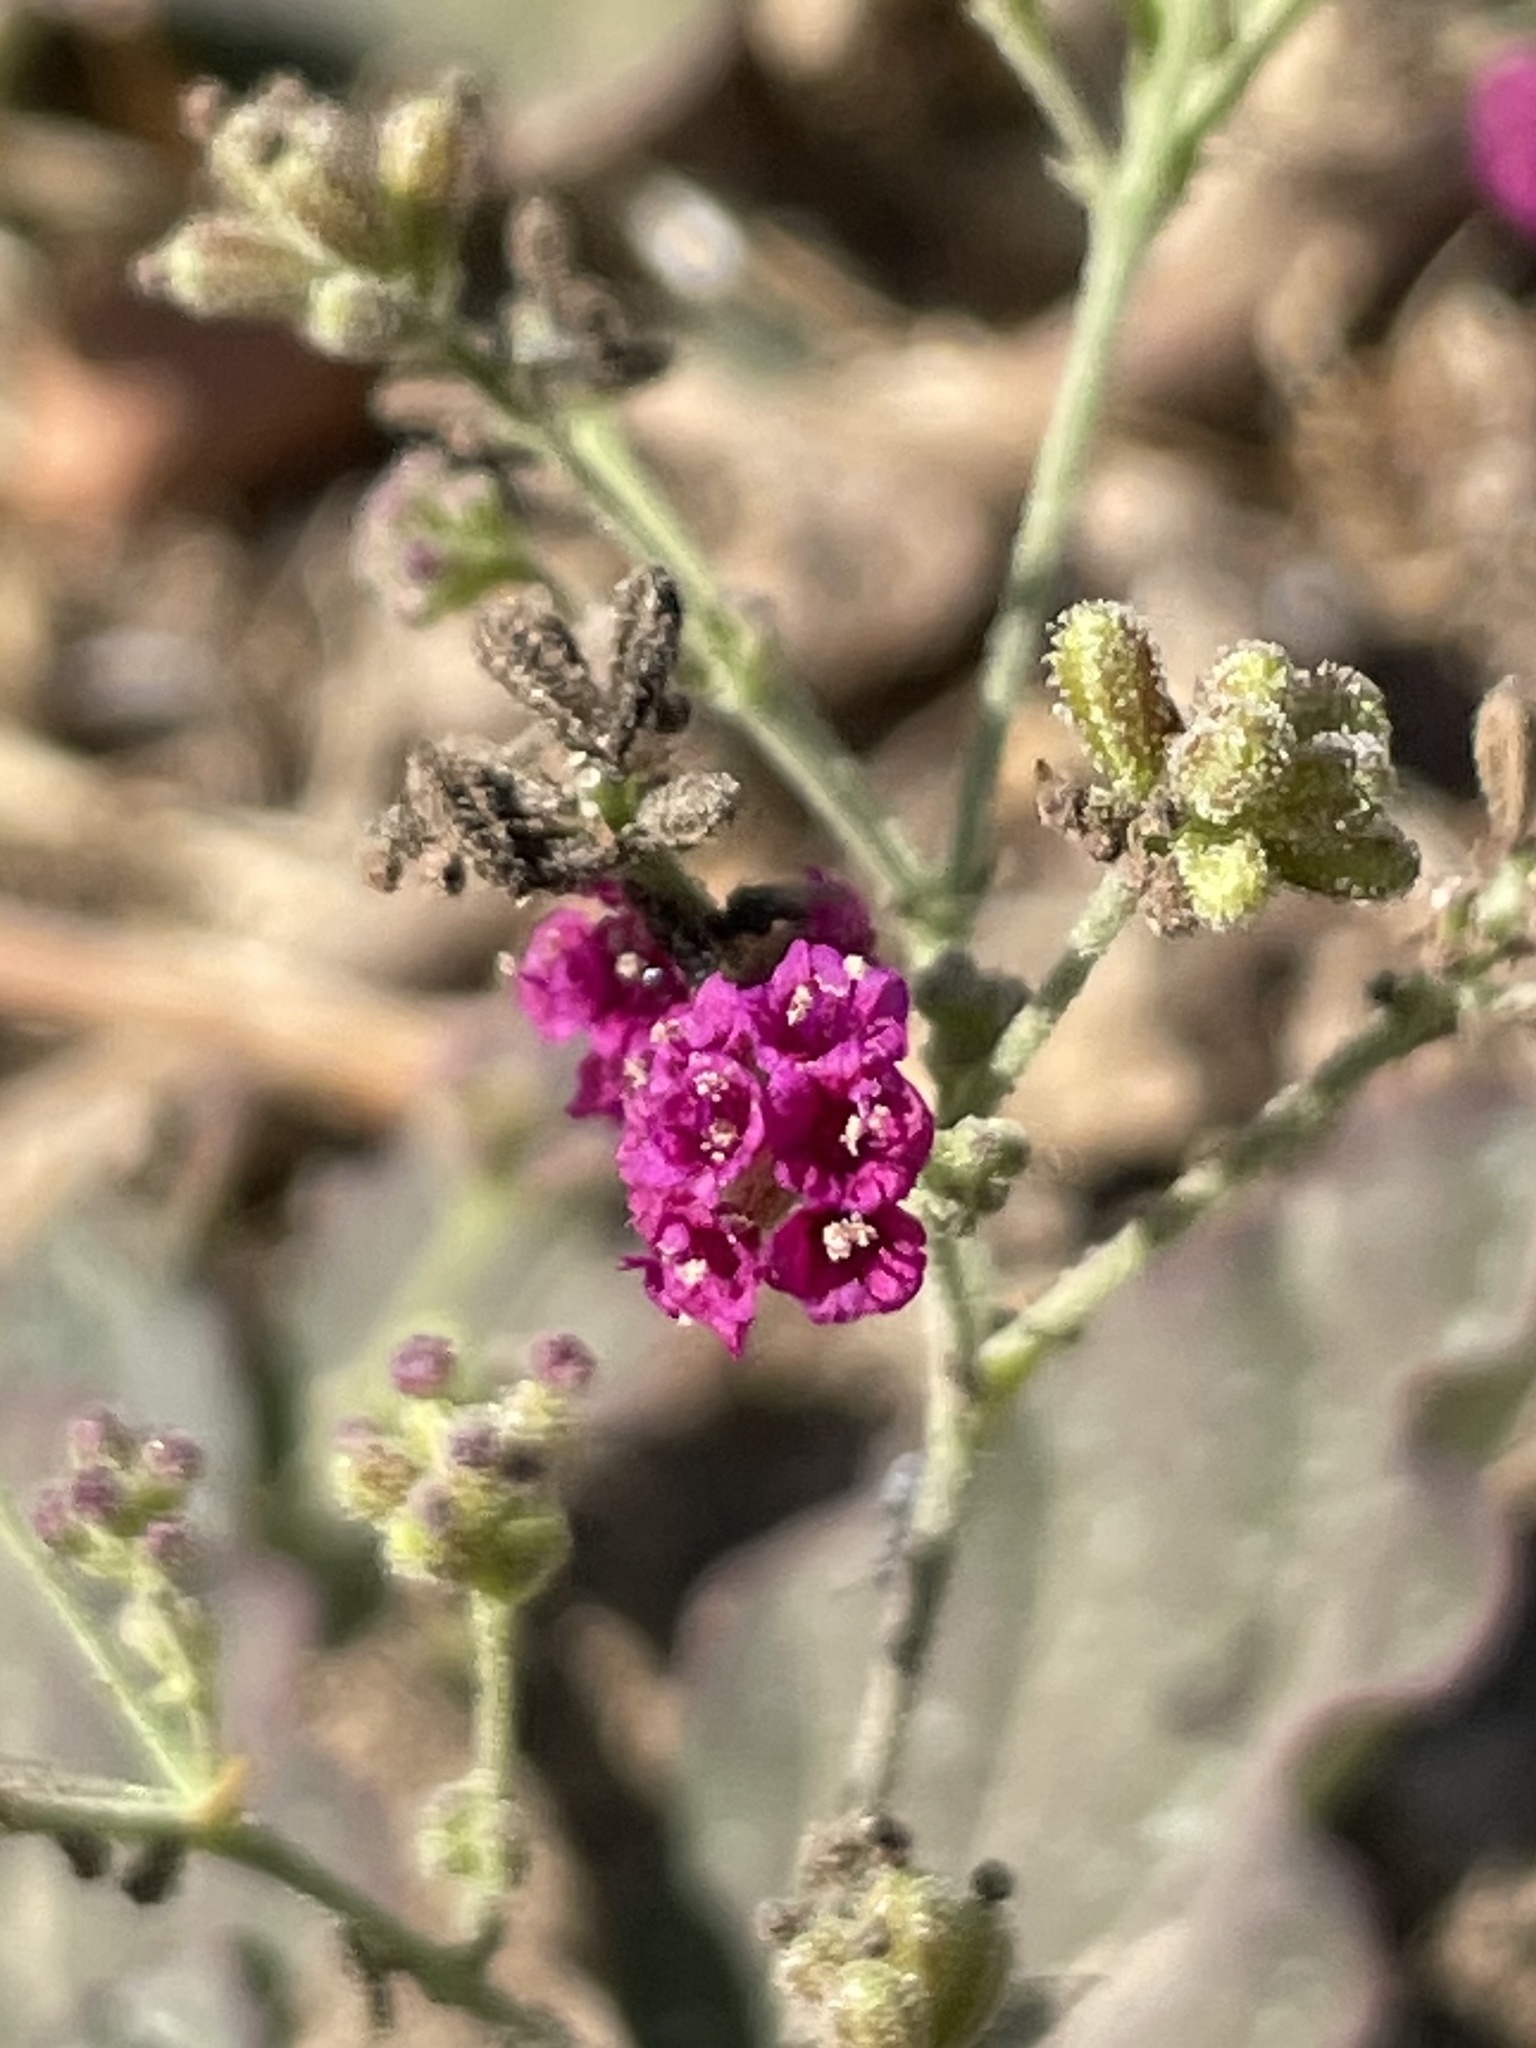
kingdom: Plantae
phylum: Tracheophyta
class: Magnoliopsida
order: Caryophyllales
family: Nyctaginaceae
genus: Boerhavia
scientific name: Boerhavia coccinea
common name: Scarlet spiderling
